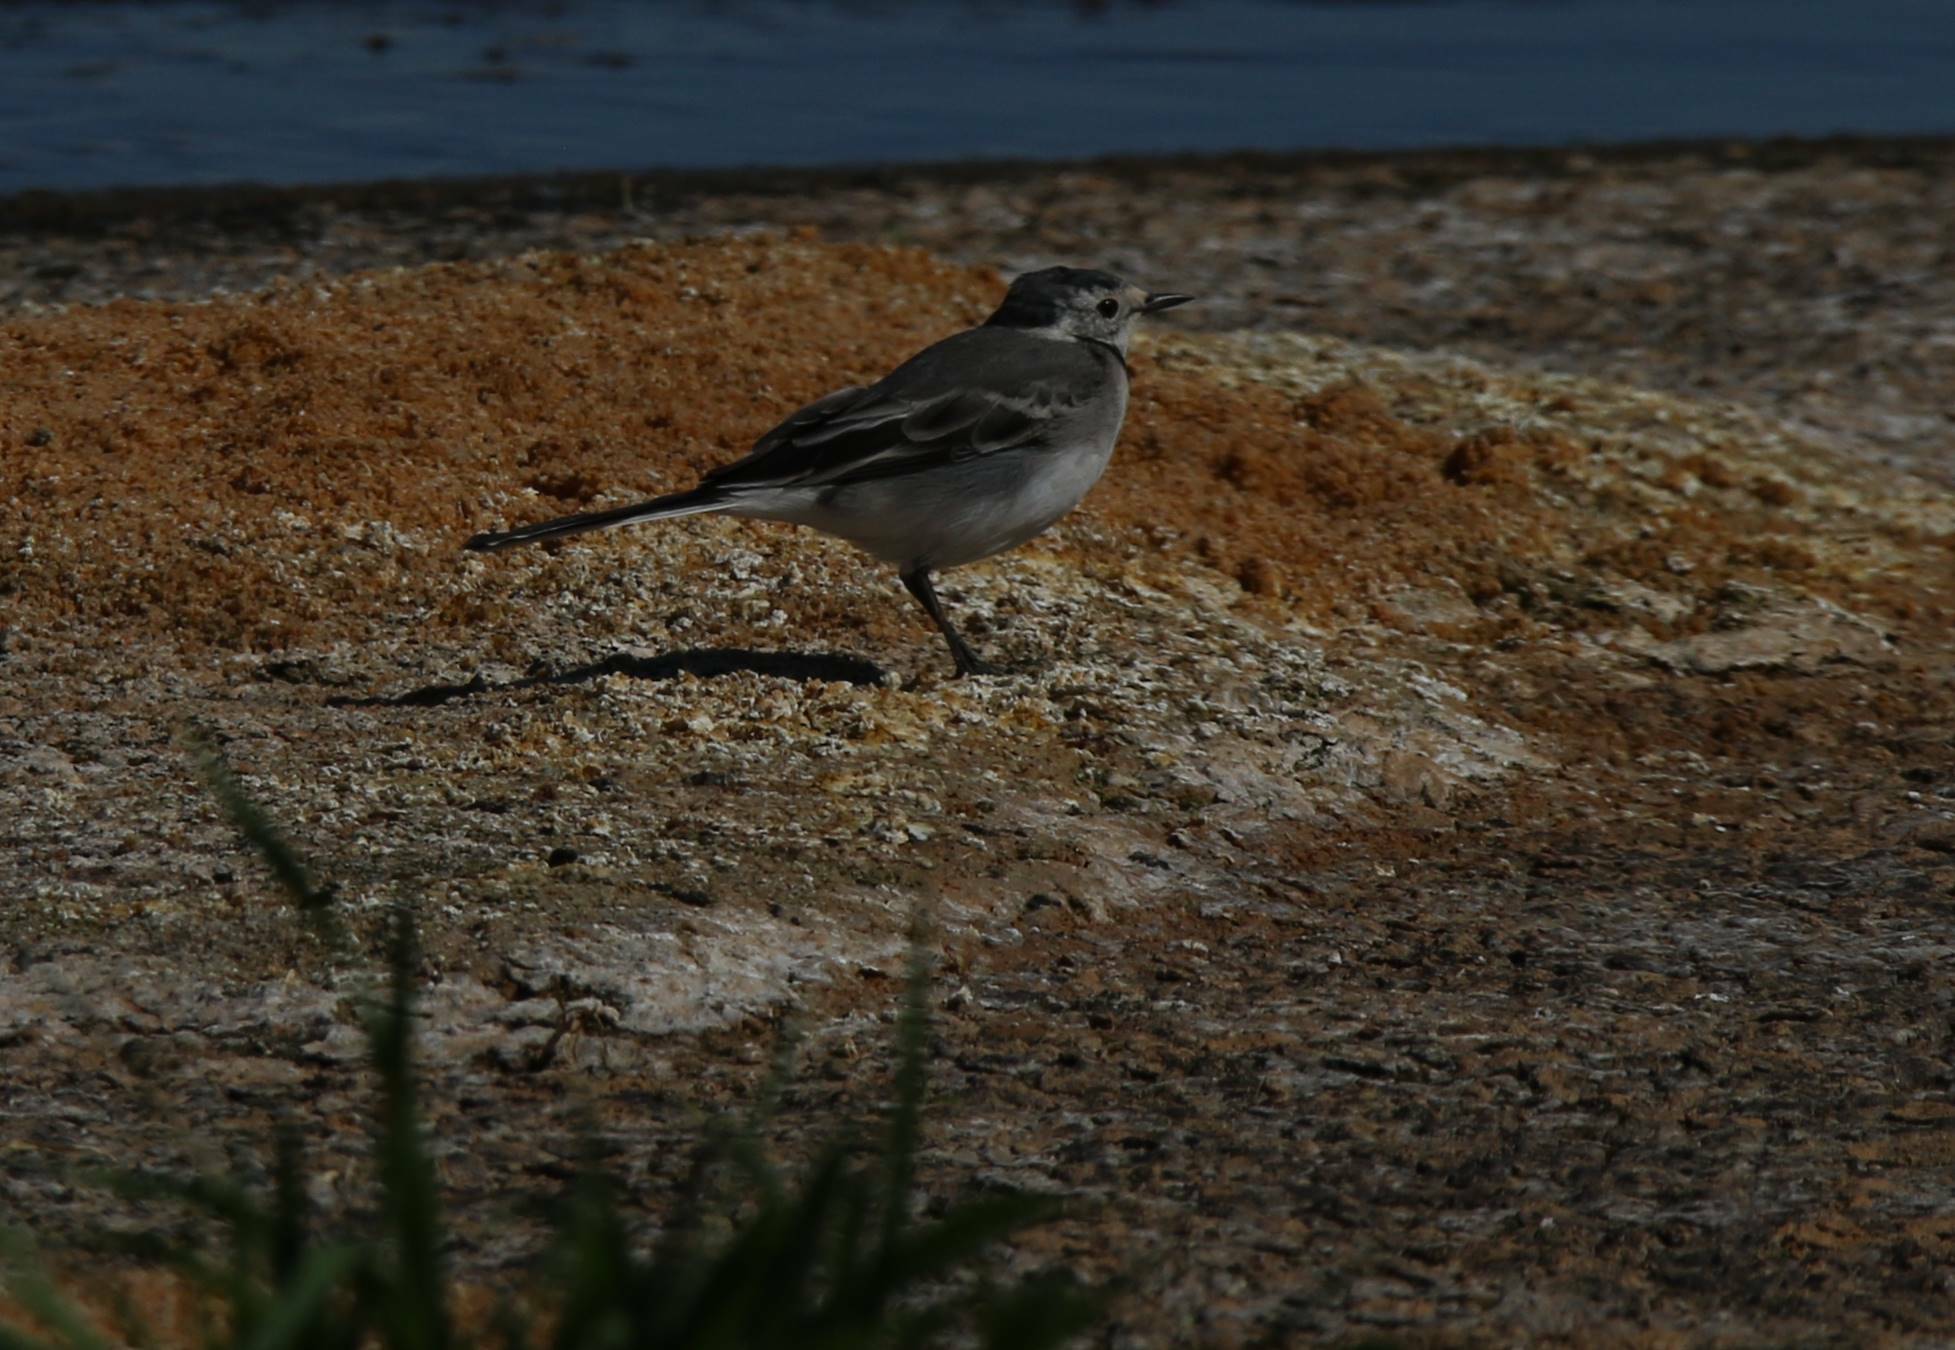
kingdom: Animalia
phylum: Chordata
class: Aves
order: Passeriformes
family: Motacillidae
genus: Motacilla
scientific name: Motacilla alba
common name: White wagtail
